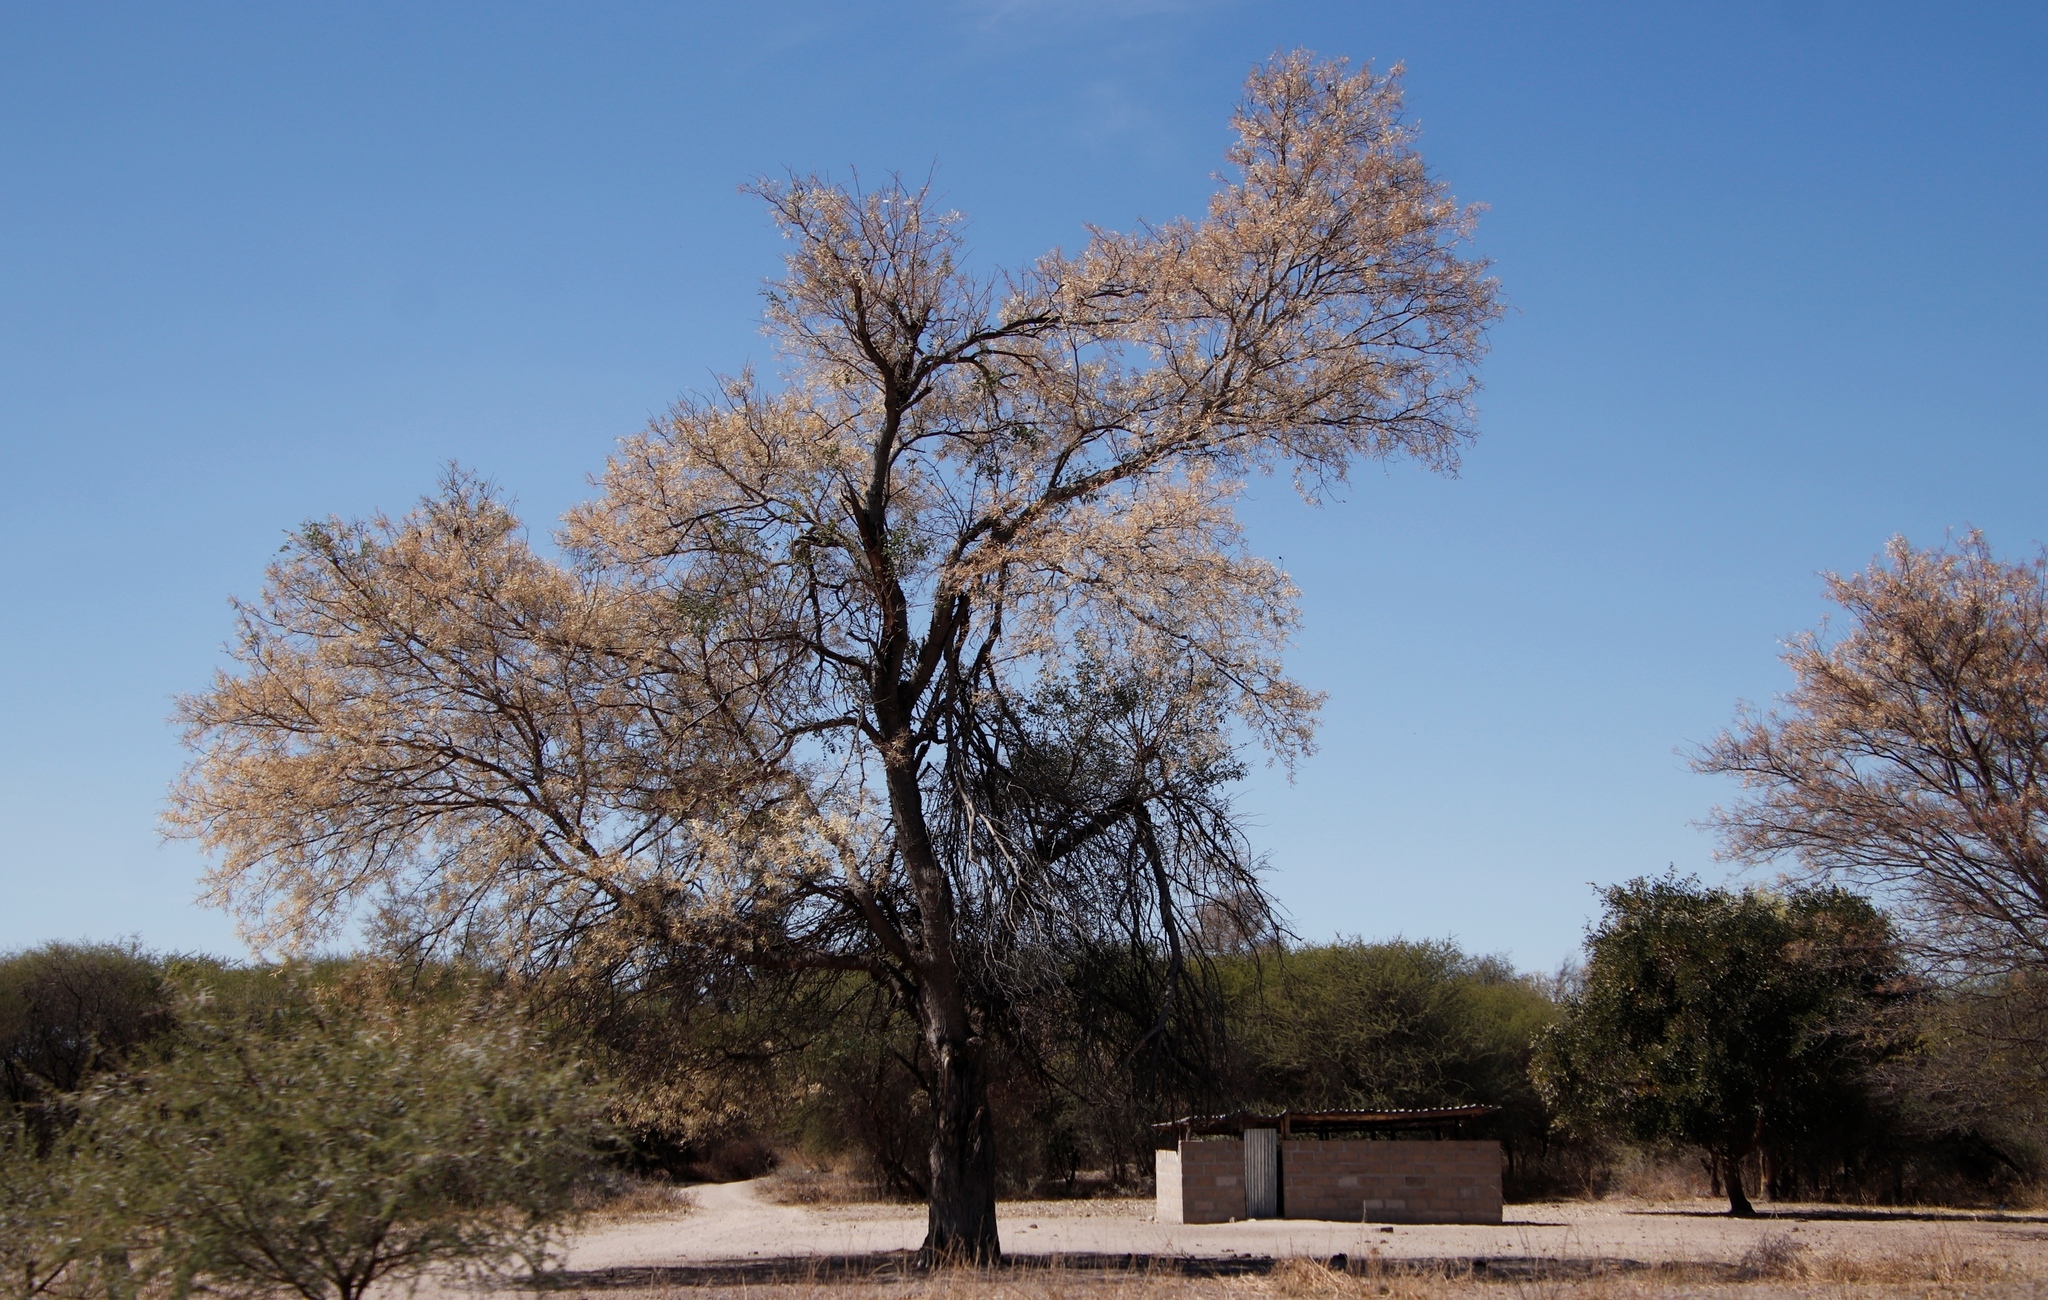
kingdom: Plantae
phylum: Tracheophyta
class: Magnoliopsida
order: Fabales
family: Fabaceae
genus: Senegalia
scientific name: Senegalia nigrescens
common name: Knobthorn
